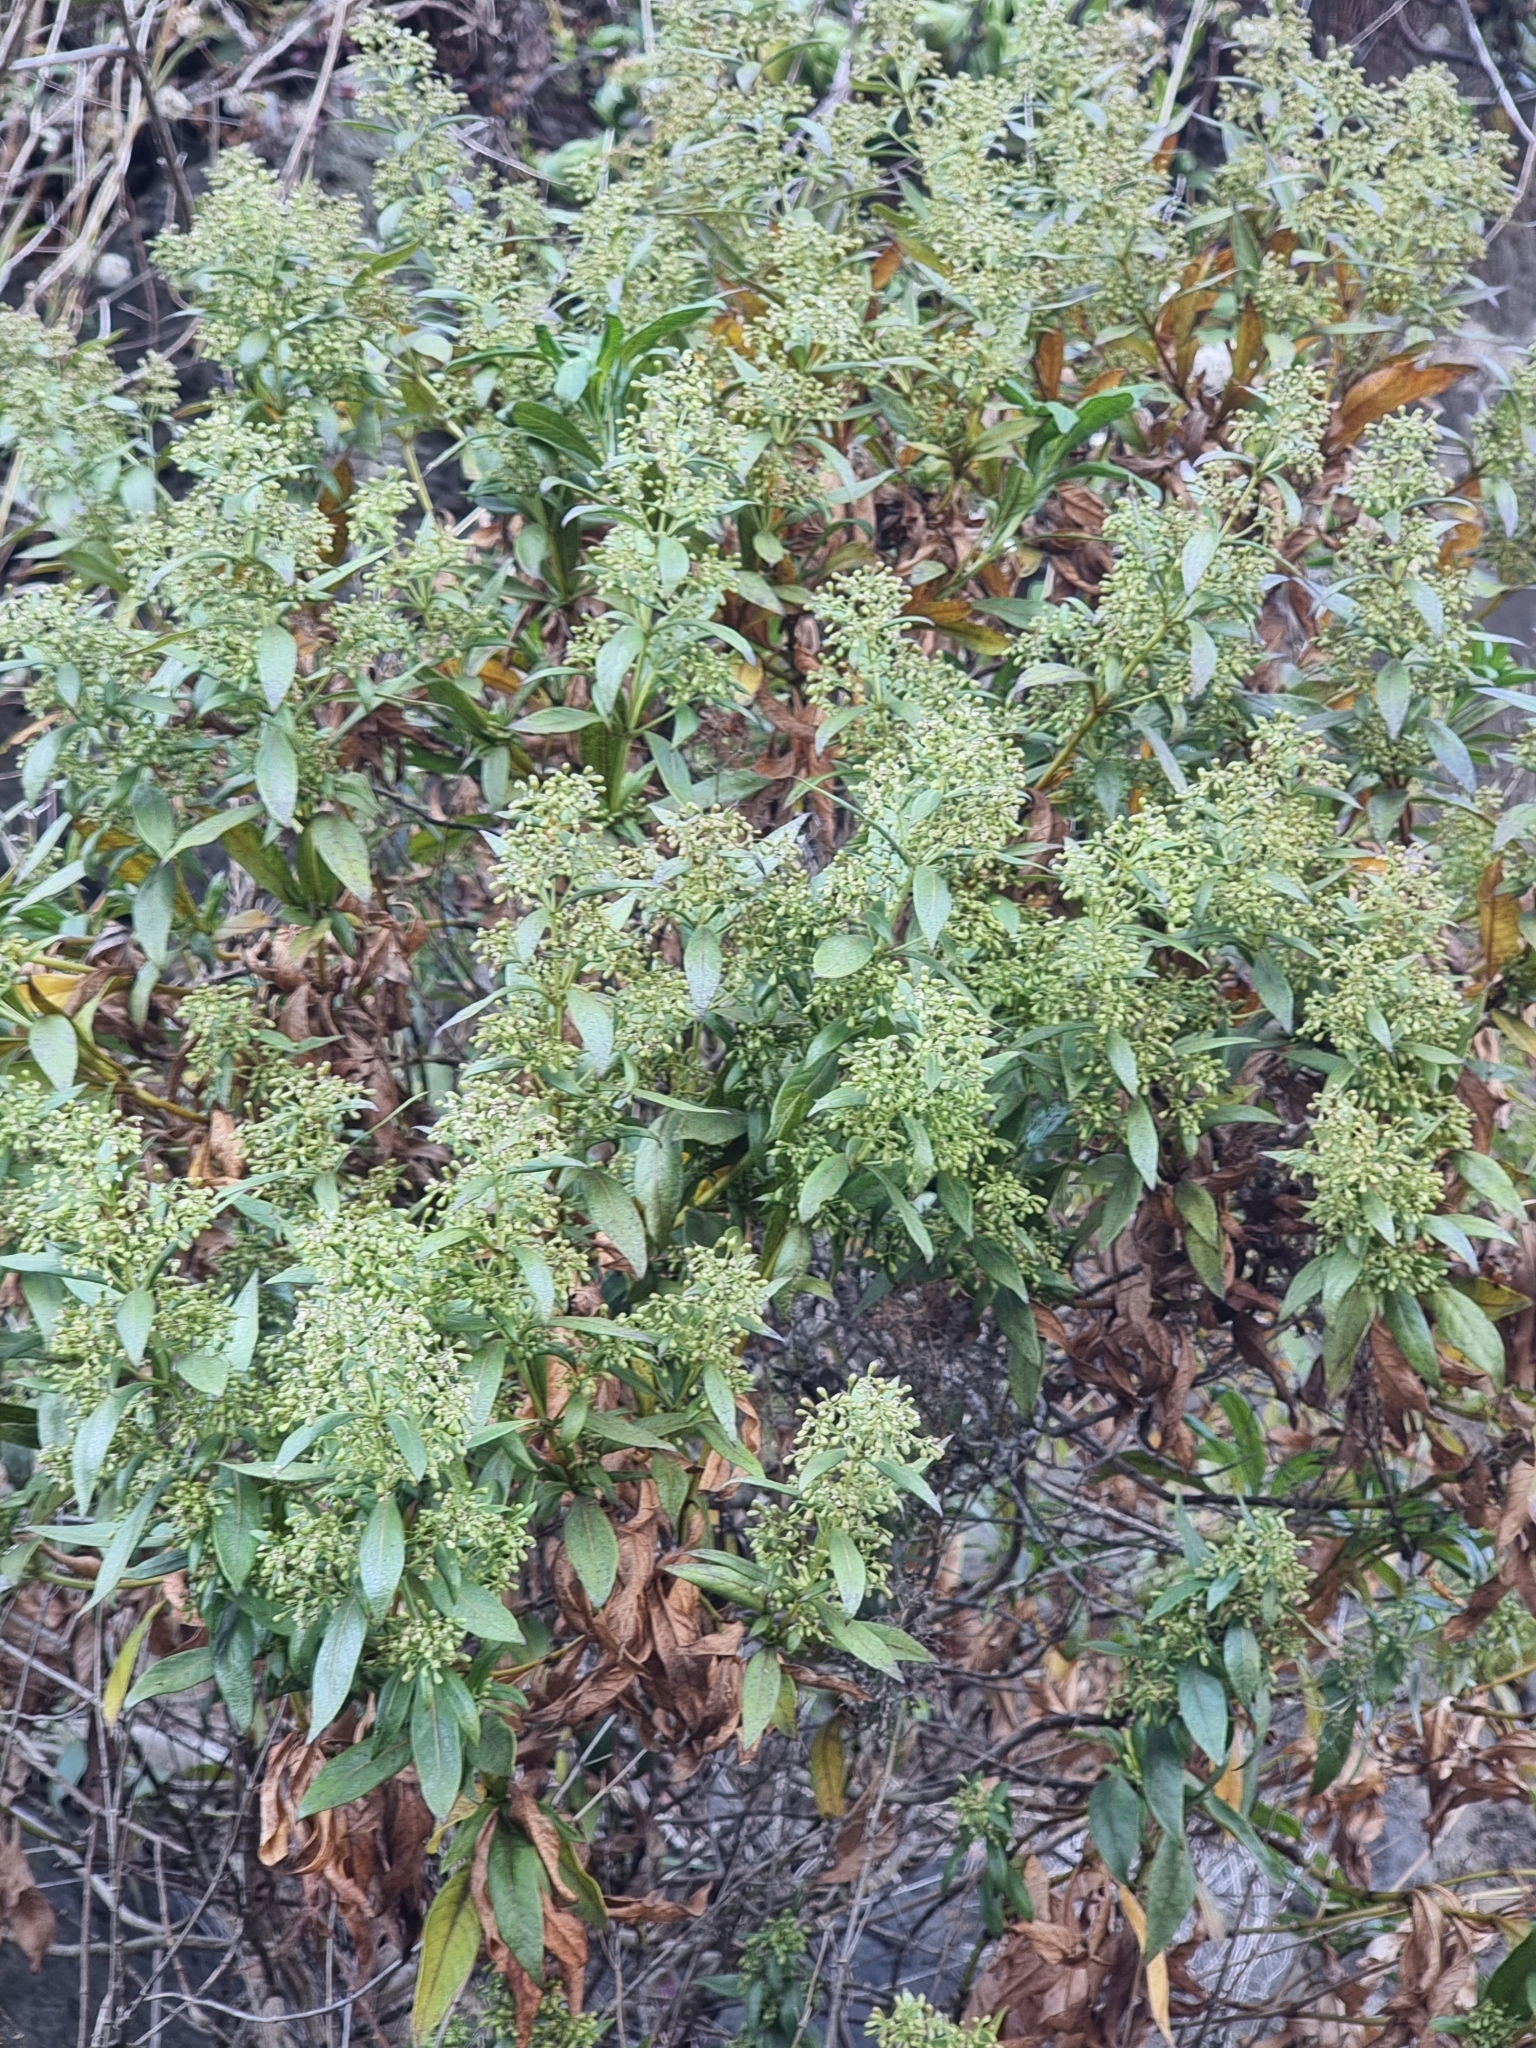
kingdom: Plantae
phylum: Tracheophyta
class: Magnoliopsida
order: Gentianales
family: Rubiaceae
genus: Phyllis
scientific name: Phyllis nobla
